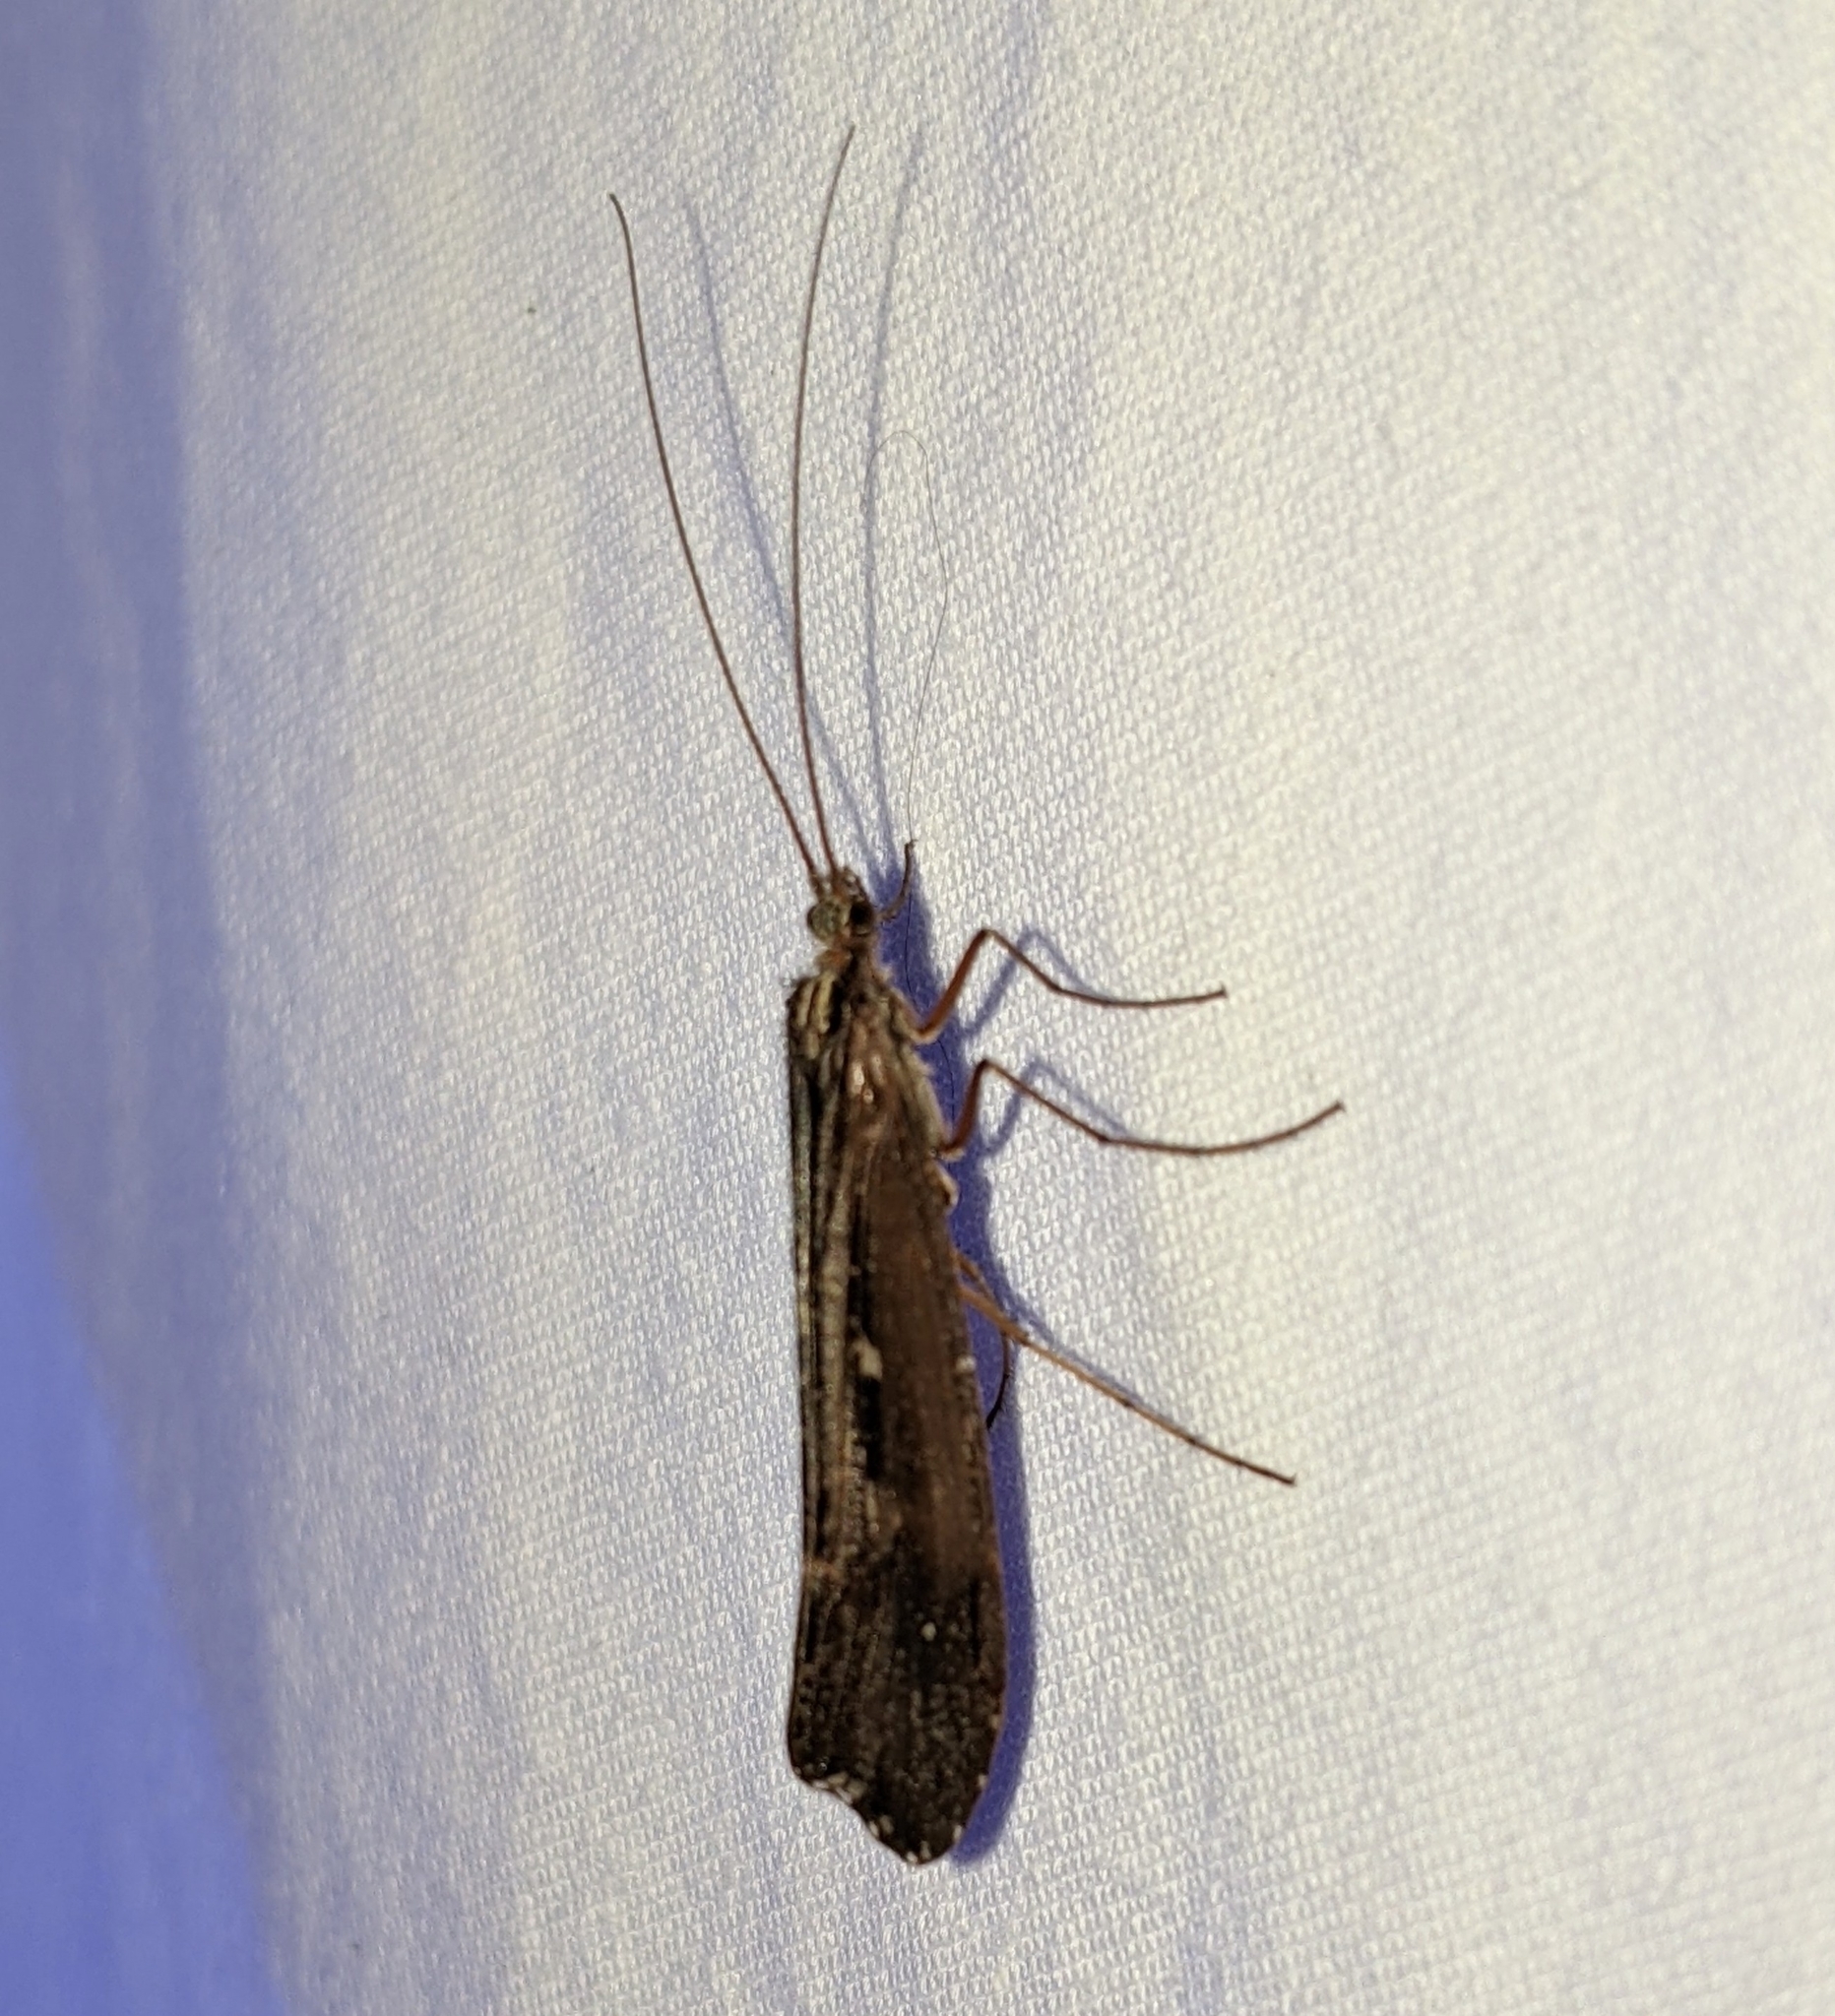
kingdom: Animalia
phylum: Arthropoda
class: Insecta
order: Trichoptera
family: Limnephilidae
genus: Glyphopsyche
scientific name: Glyphopsyche irrorata
